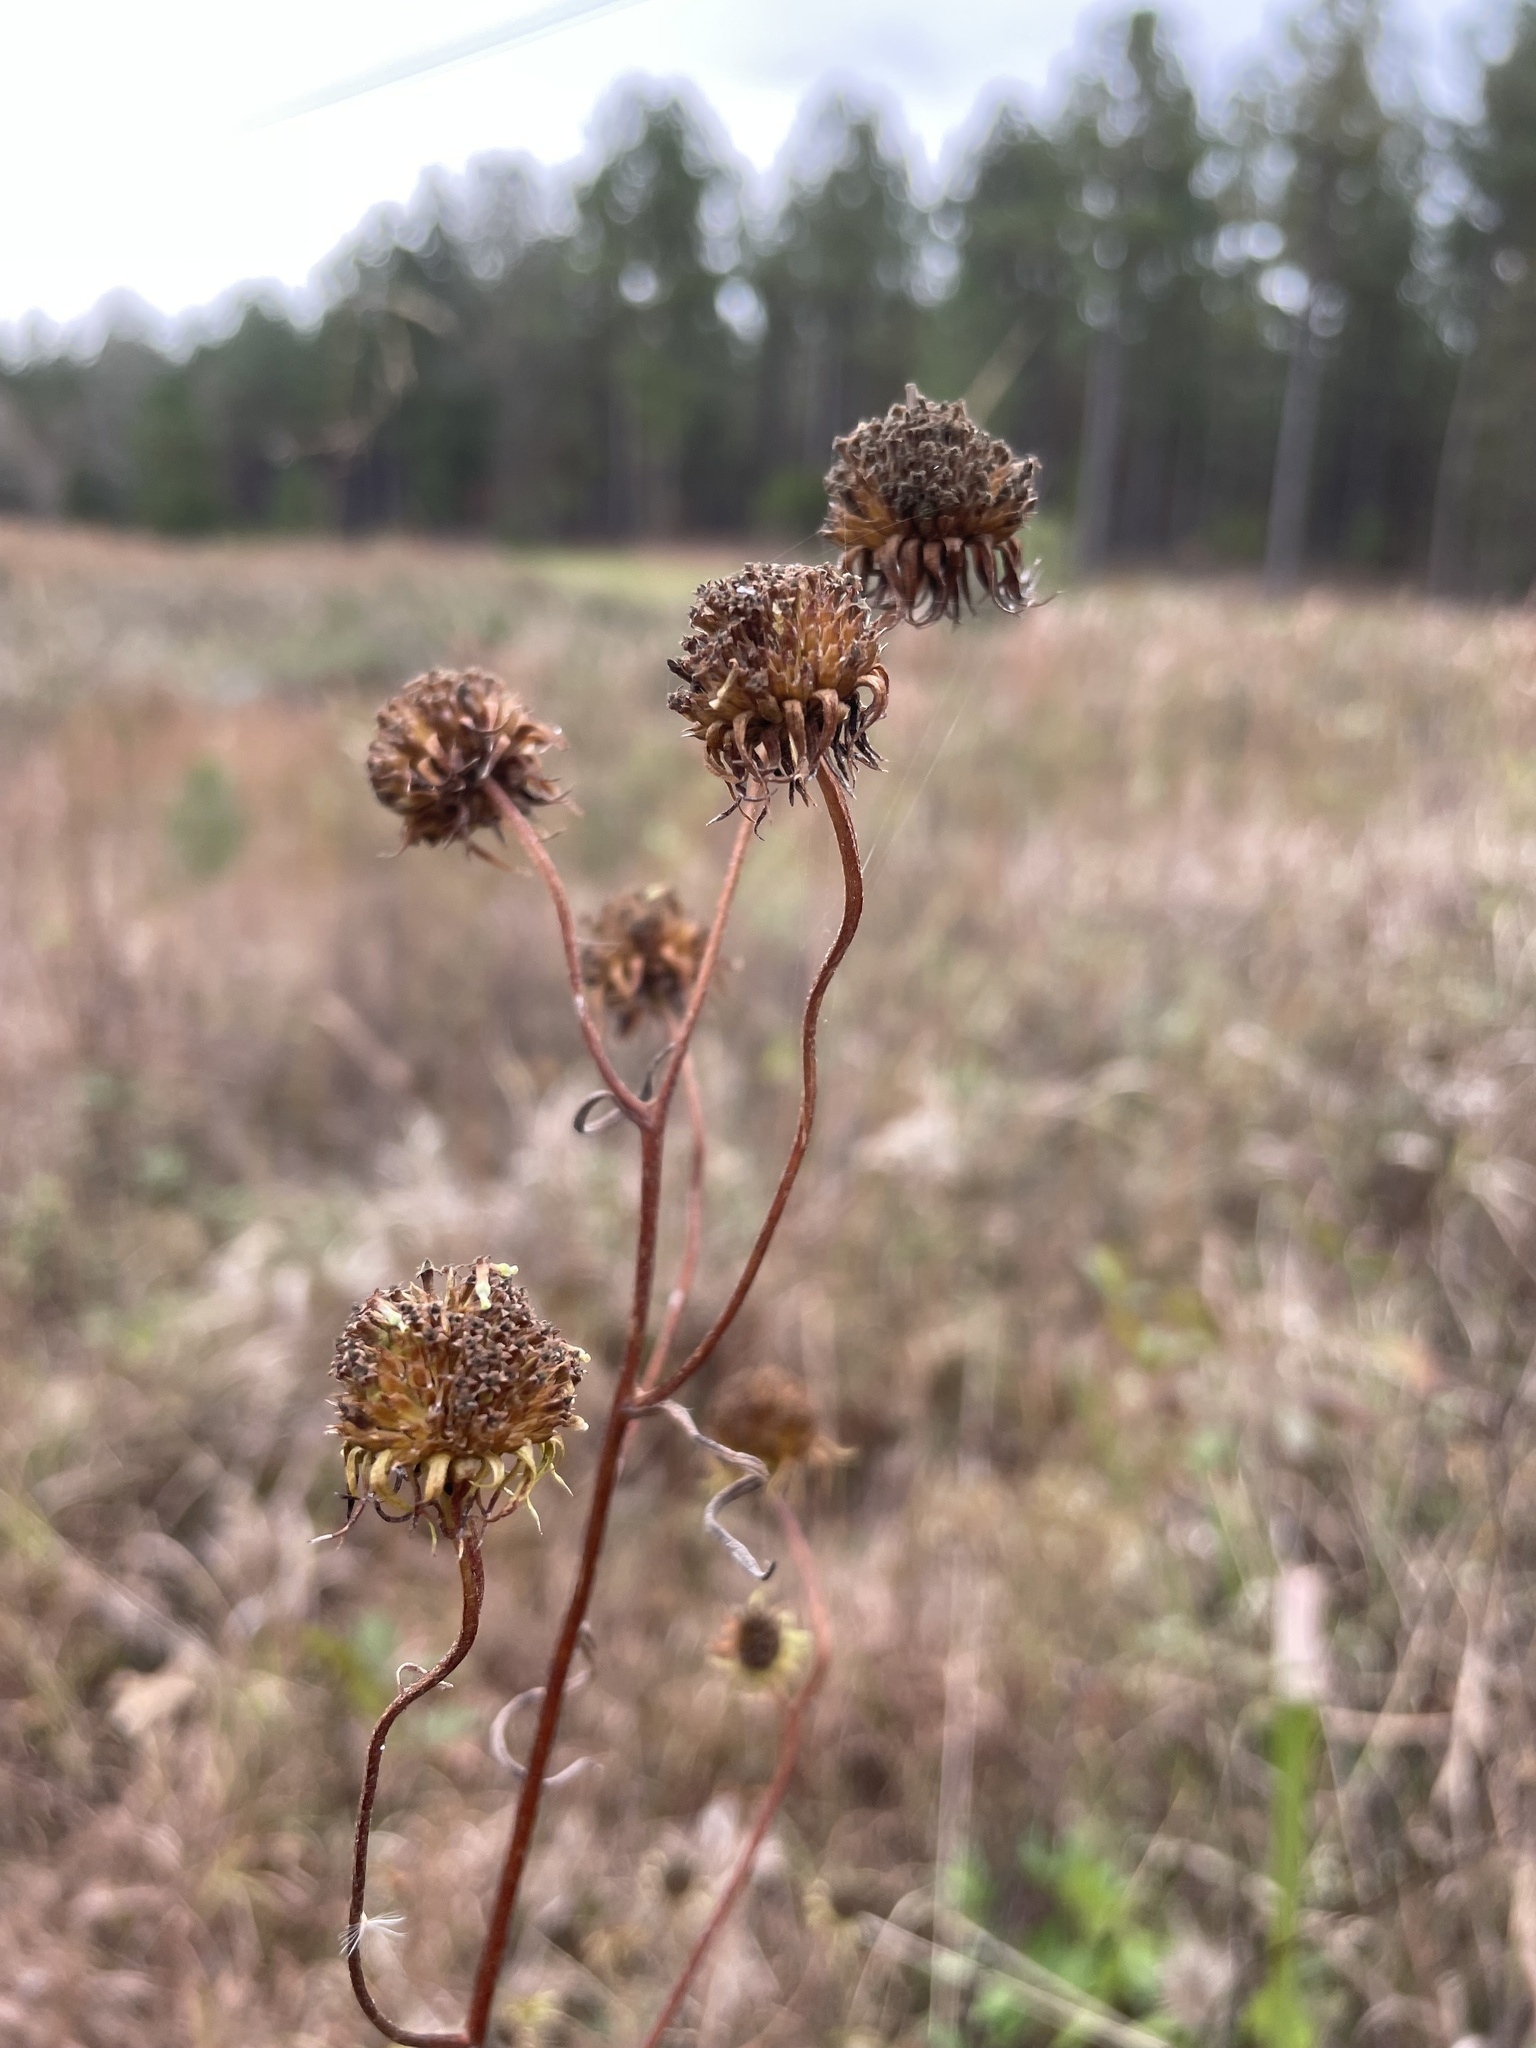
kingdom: Plantae
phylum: Tracheophyta
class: Magnoliopsida
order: Asterales
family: Asteraceae
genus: Helianthus
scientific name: Helianthus angustifolius
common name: Swamp sunflower
